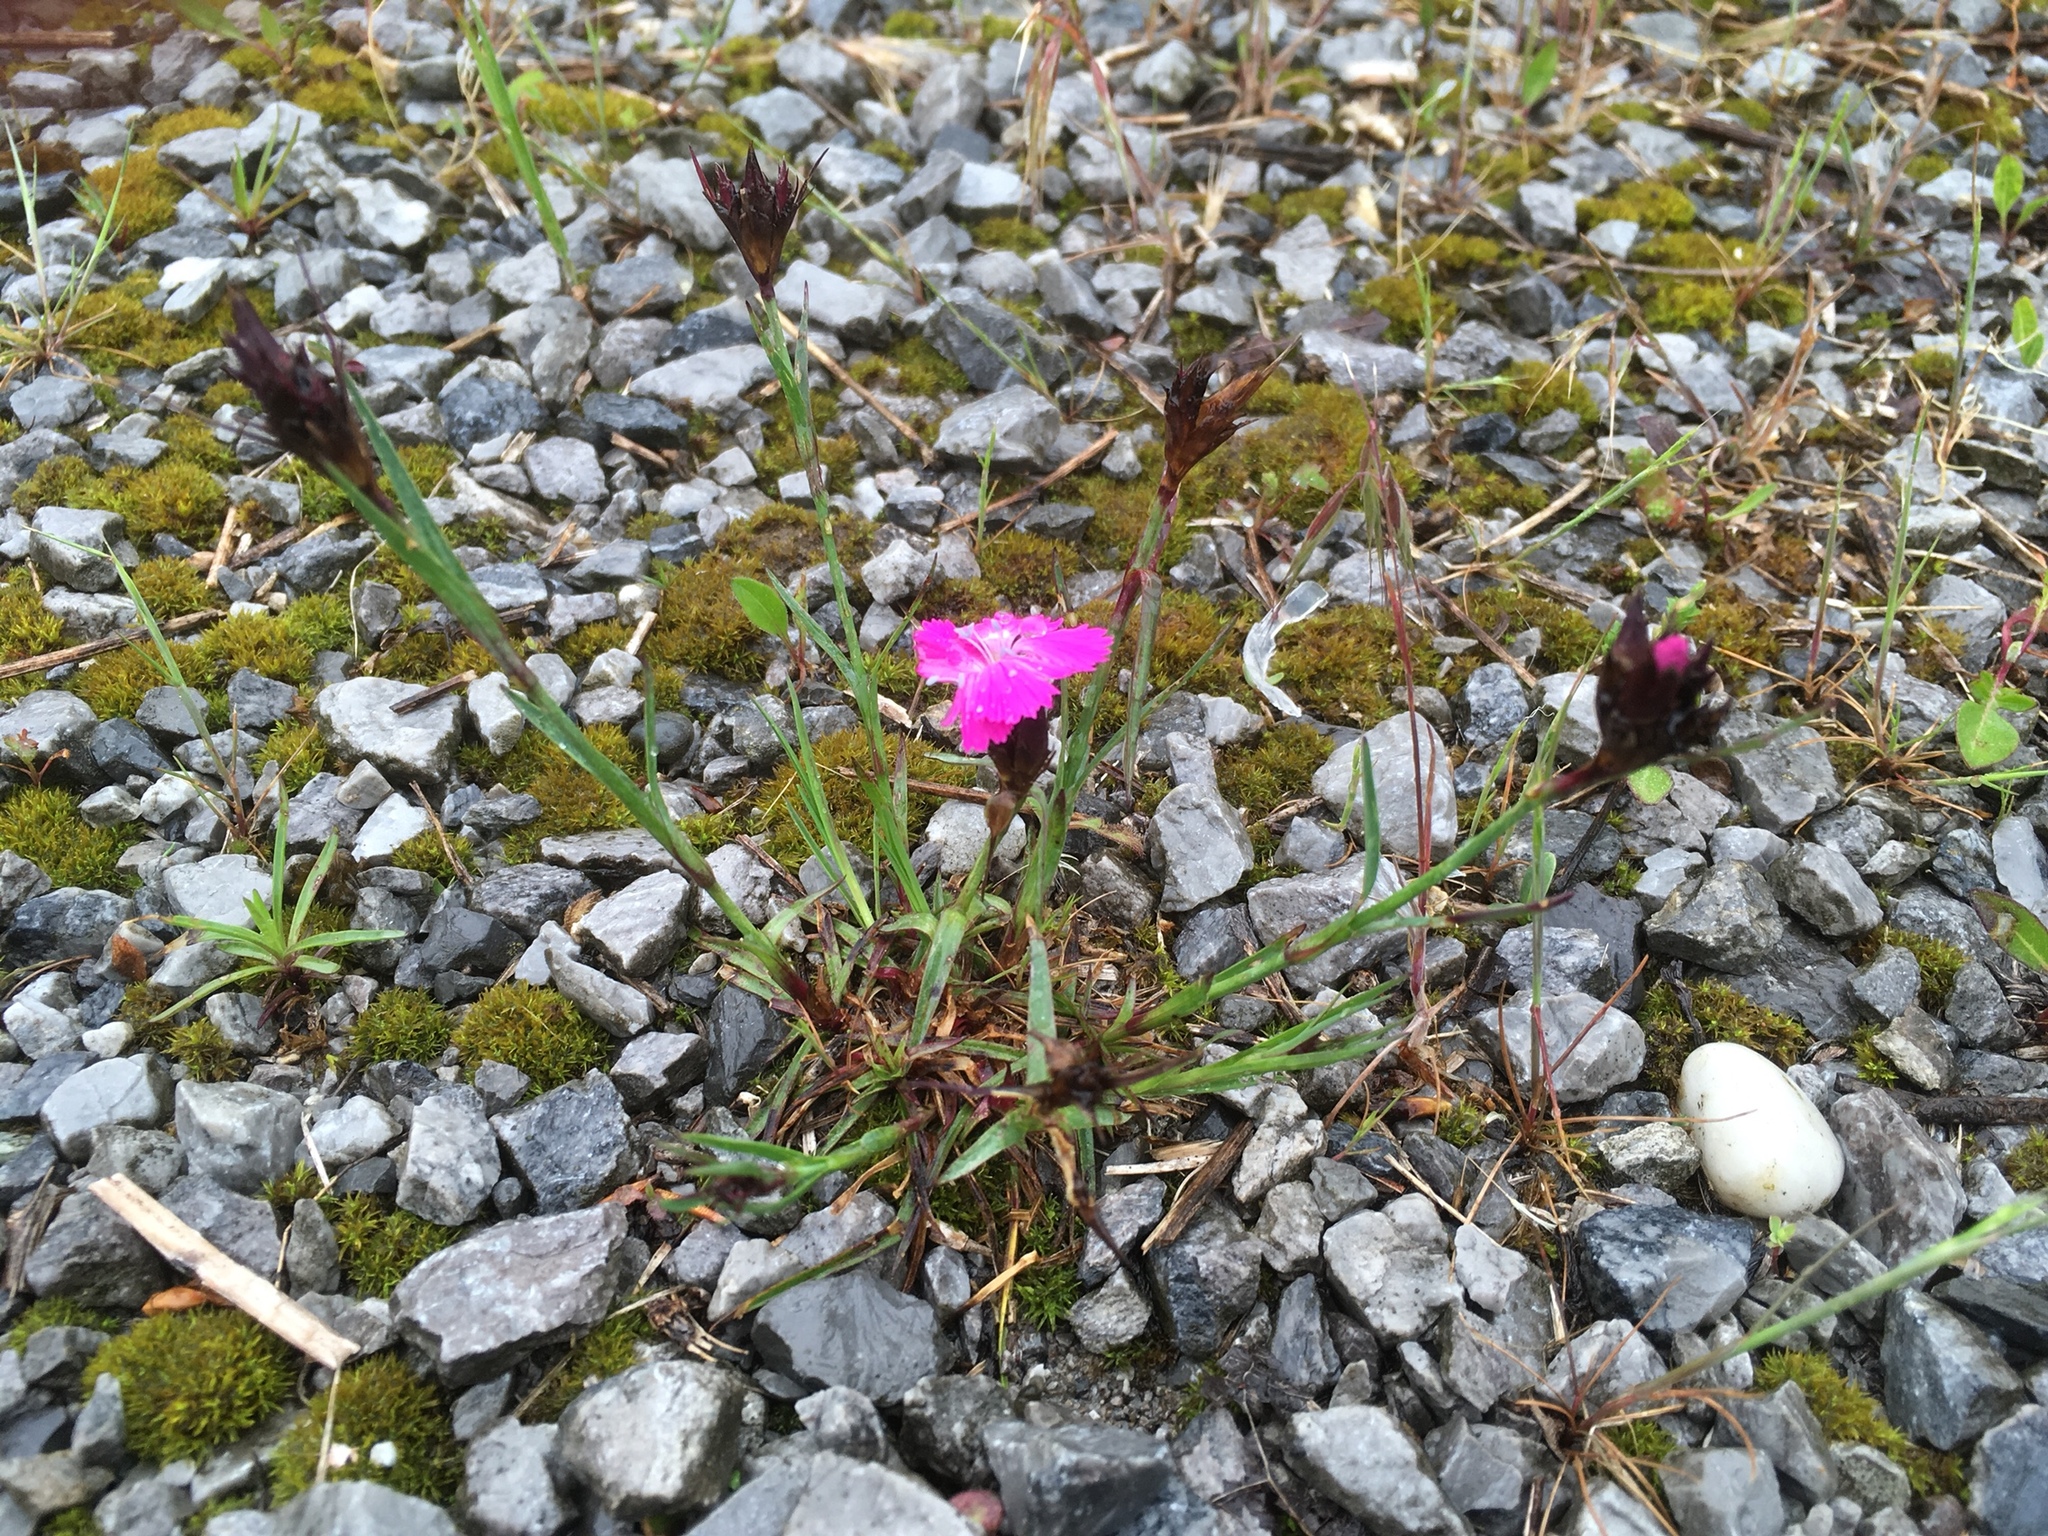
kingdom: Plantae
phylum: Tracheophyta
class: Magnoliopsida
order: Caryophyllales
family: Caryophyllaceae
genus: Dianthus
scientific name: Dianthus carthusianorum
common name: Carthusian pink
